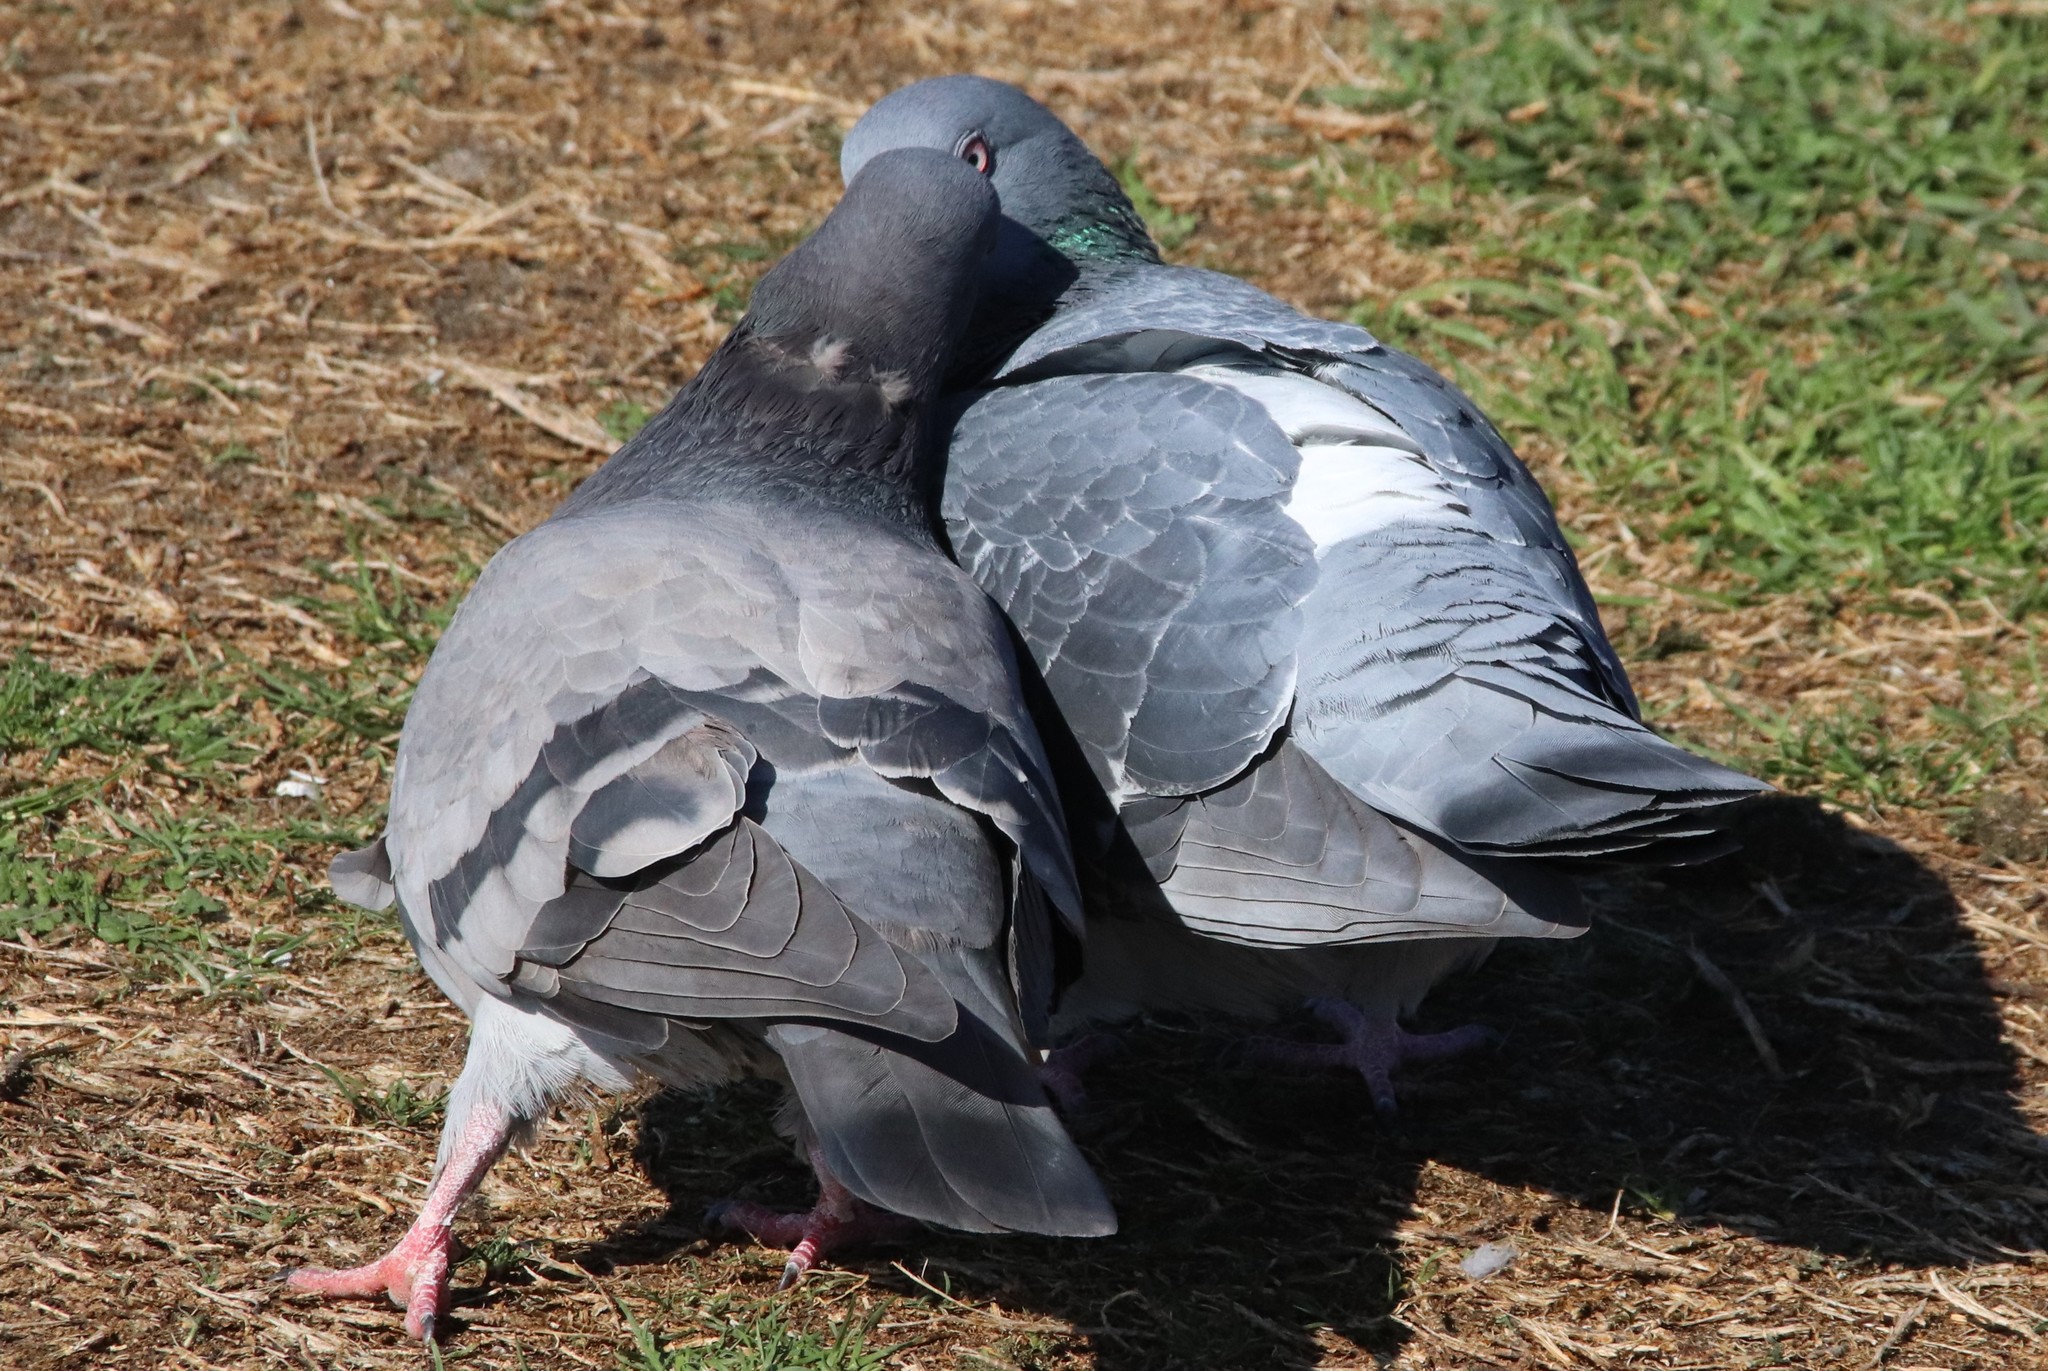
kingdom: Animalia
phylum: Chordata
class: Aves
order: Columbiformes
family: Columbidae
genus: Columba
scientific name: Columba livia
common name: Rock pigeon
